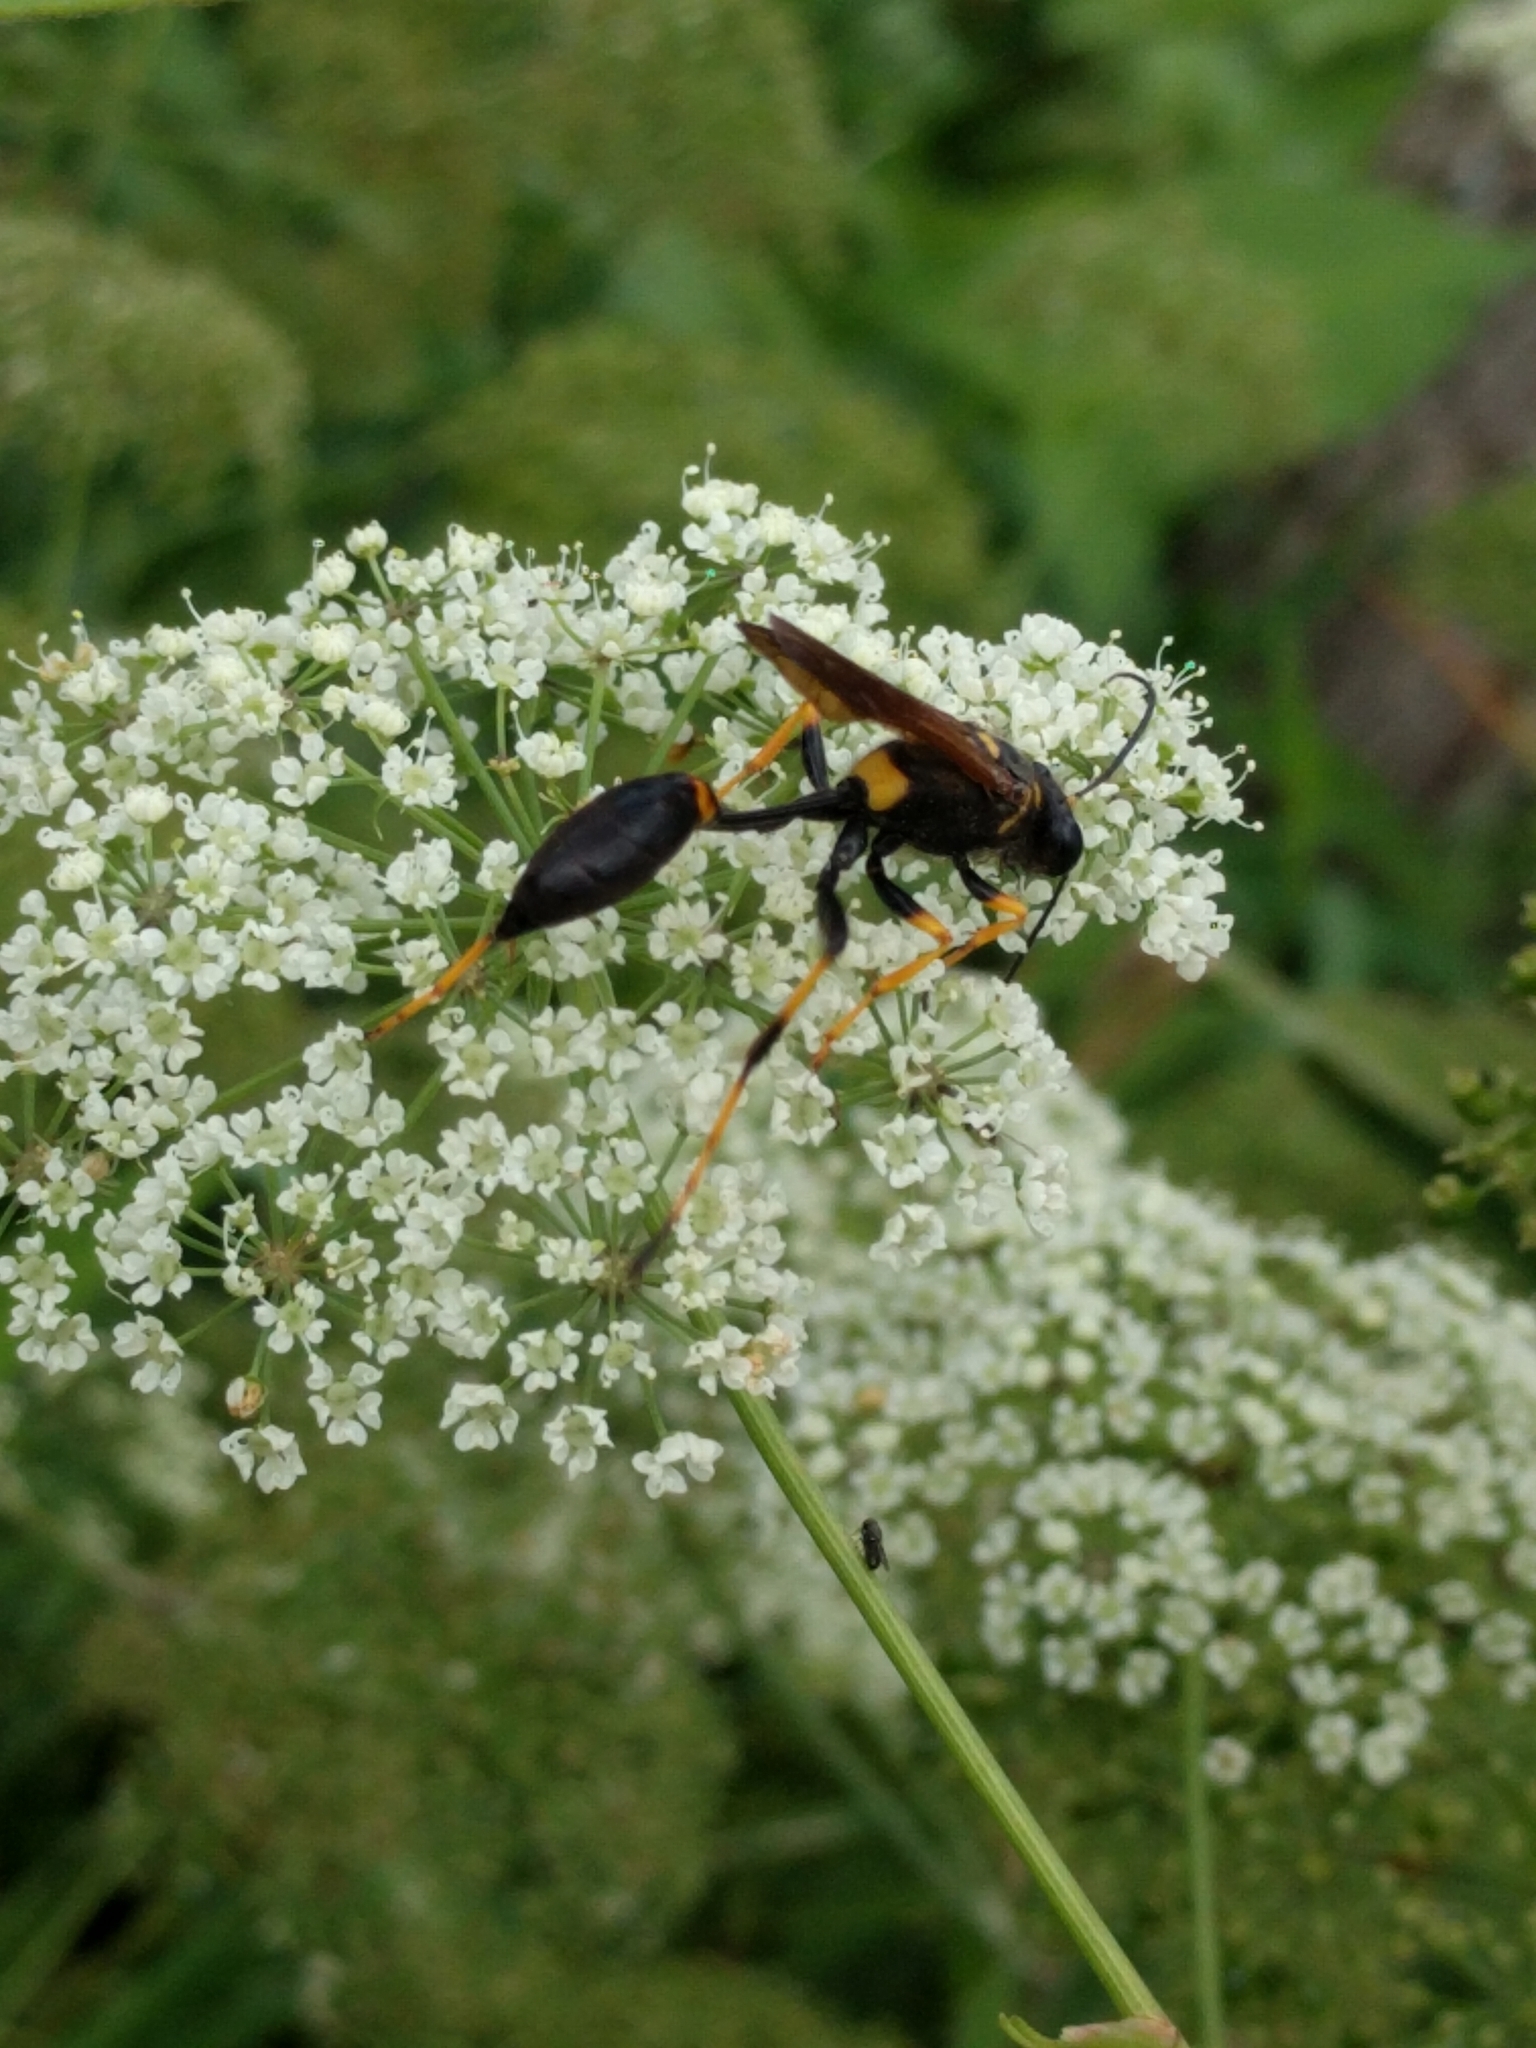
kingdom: Animalia
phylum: Arthropoda
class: Insecta
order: Hymenoptera
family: Sphecidae
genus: Sceliphron
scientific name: Sceliphron caementarium
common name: Mud dauber
